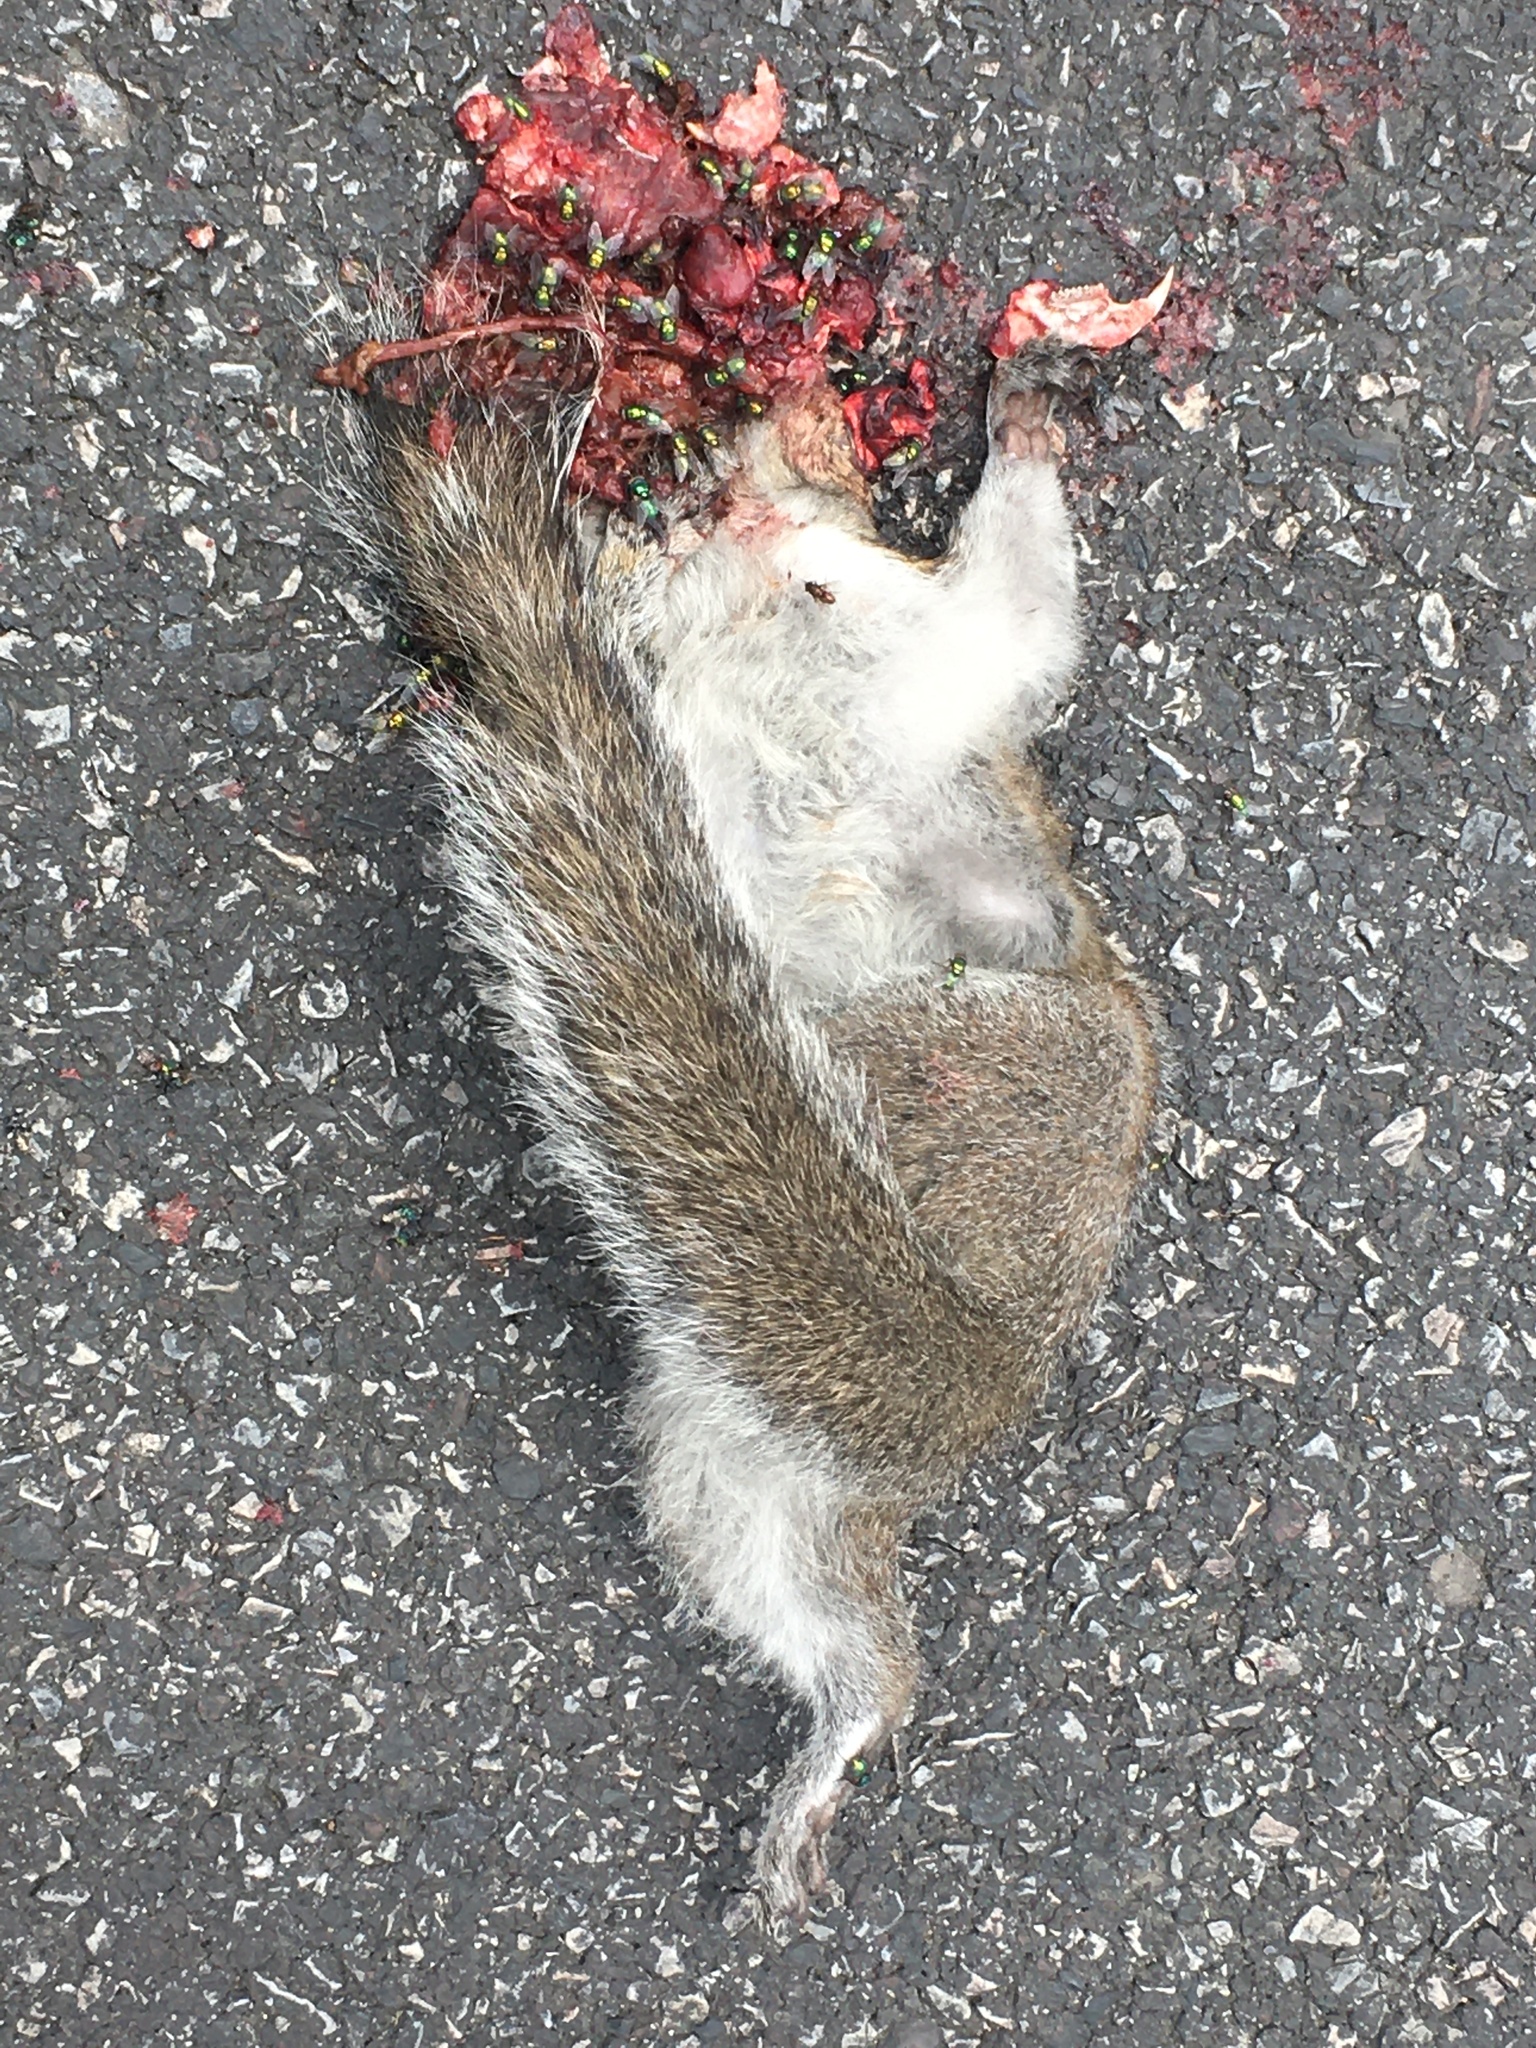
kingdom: Animalia
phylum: Chordata
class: Mammalia
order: Rodentia
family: Sciuridae
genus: Sciurus
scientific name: Sciurus carolinensis
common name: Eastern gray squirrel
